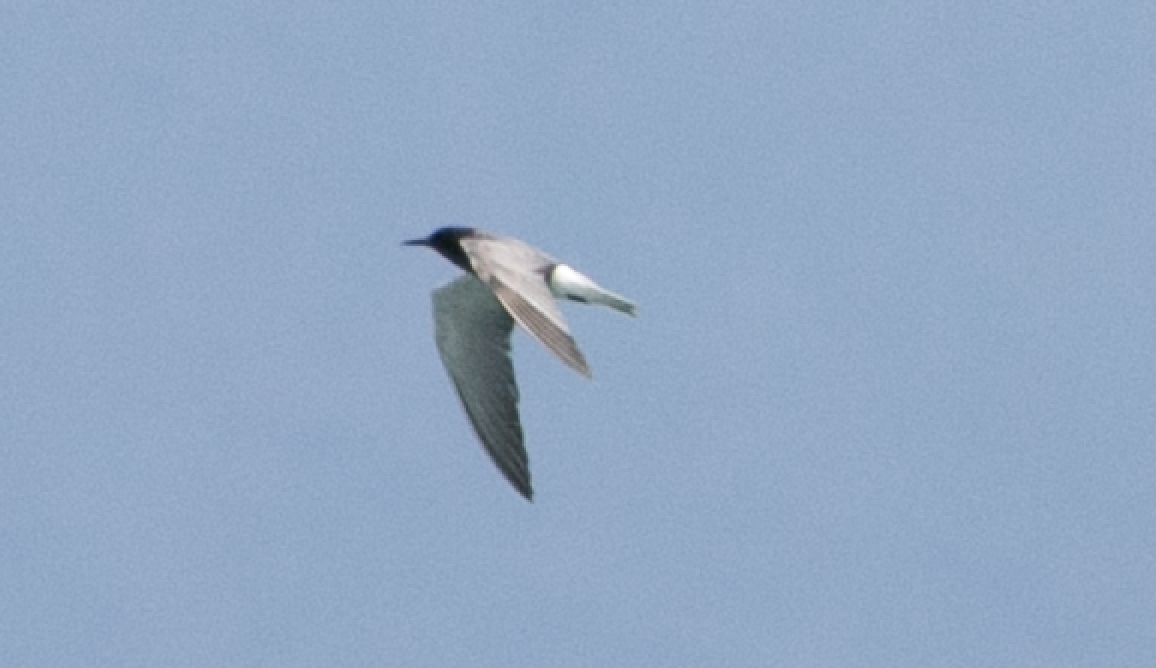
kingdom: Animalia
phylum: Chordata
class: Aves
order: Charadriiformes
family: Laridae
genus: Chlidonias
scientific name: Chlidonias niger
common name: Black tern
